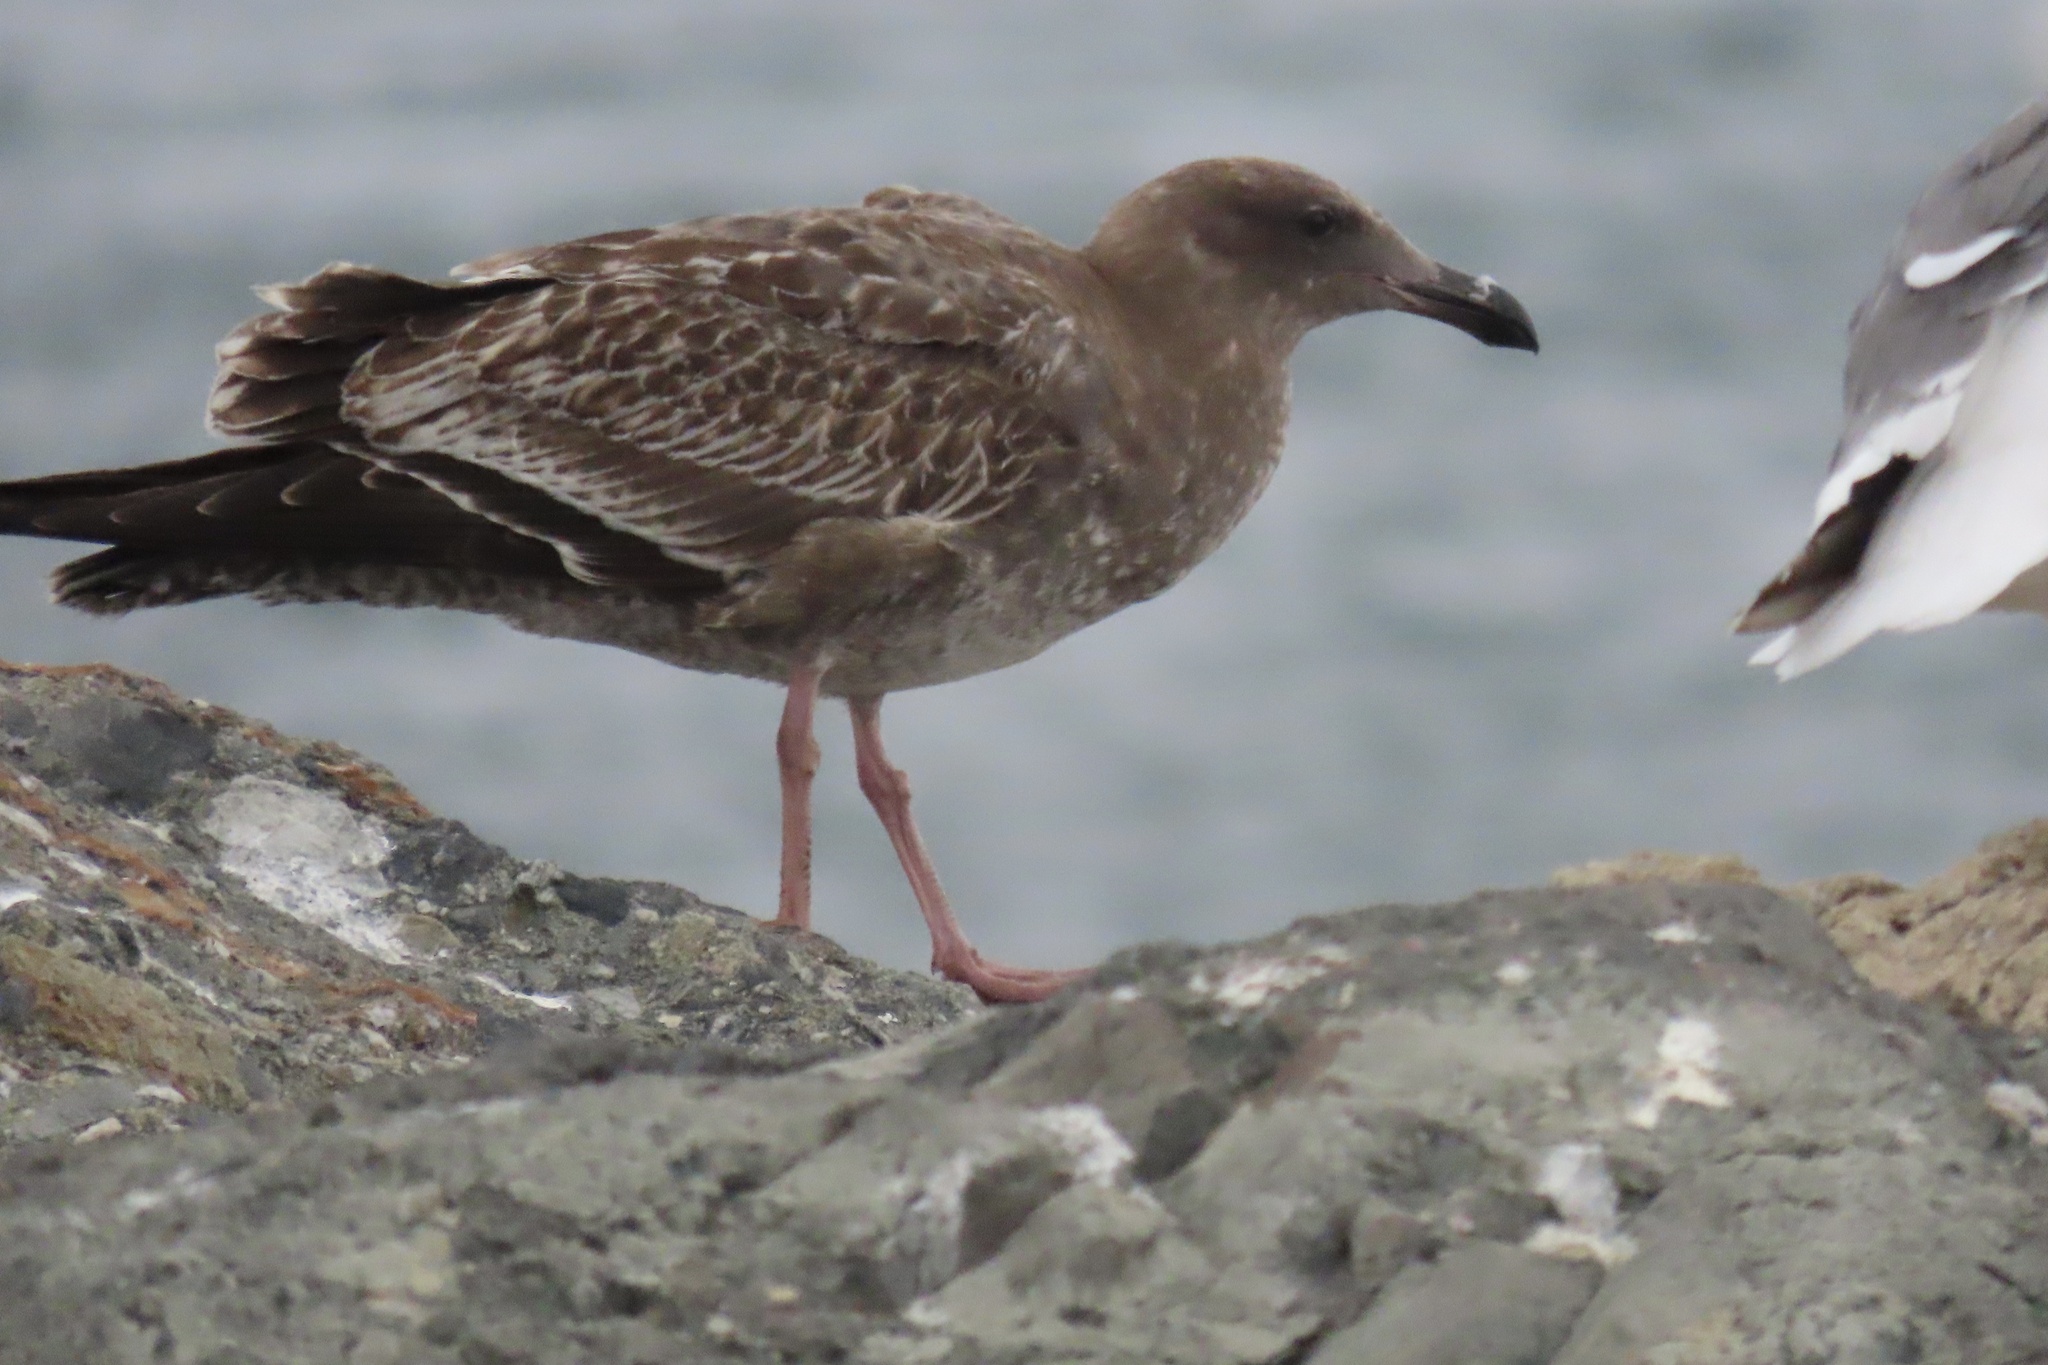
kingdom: Animalia
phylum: Chordata
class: Aves
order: Charadriiformes
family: Laridae
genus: Larus
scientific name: Larus occidentalis
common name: Western gull
